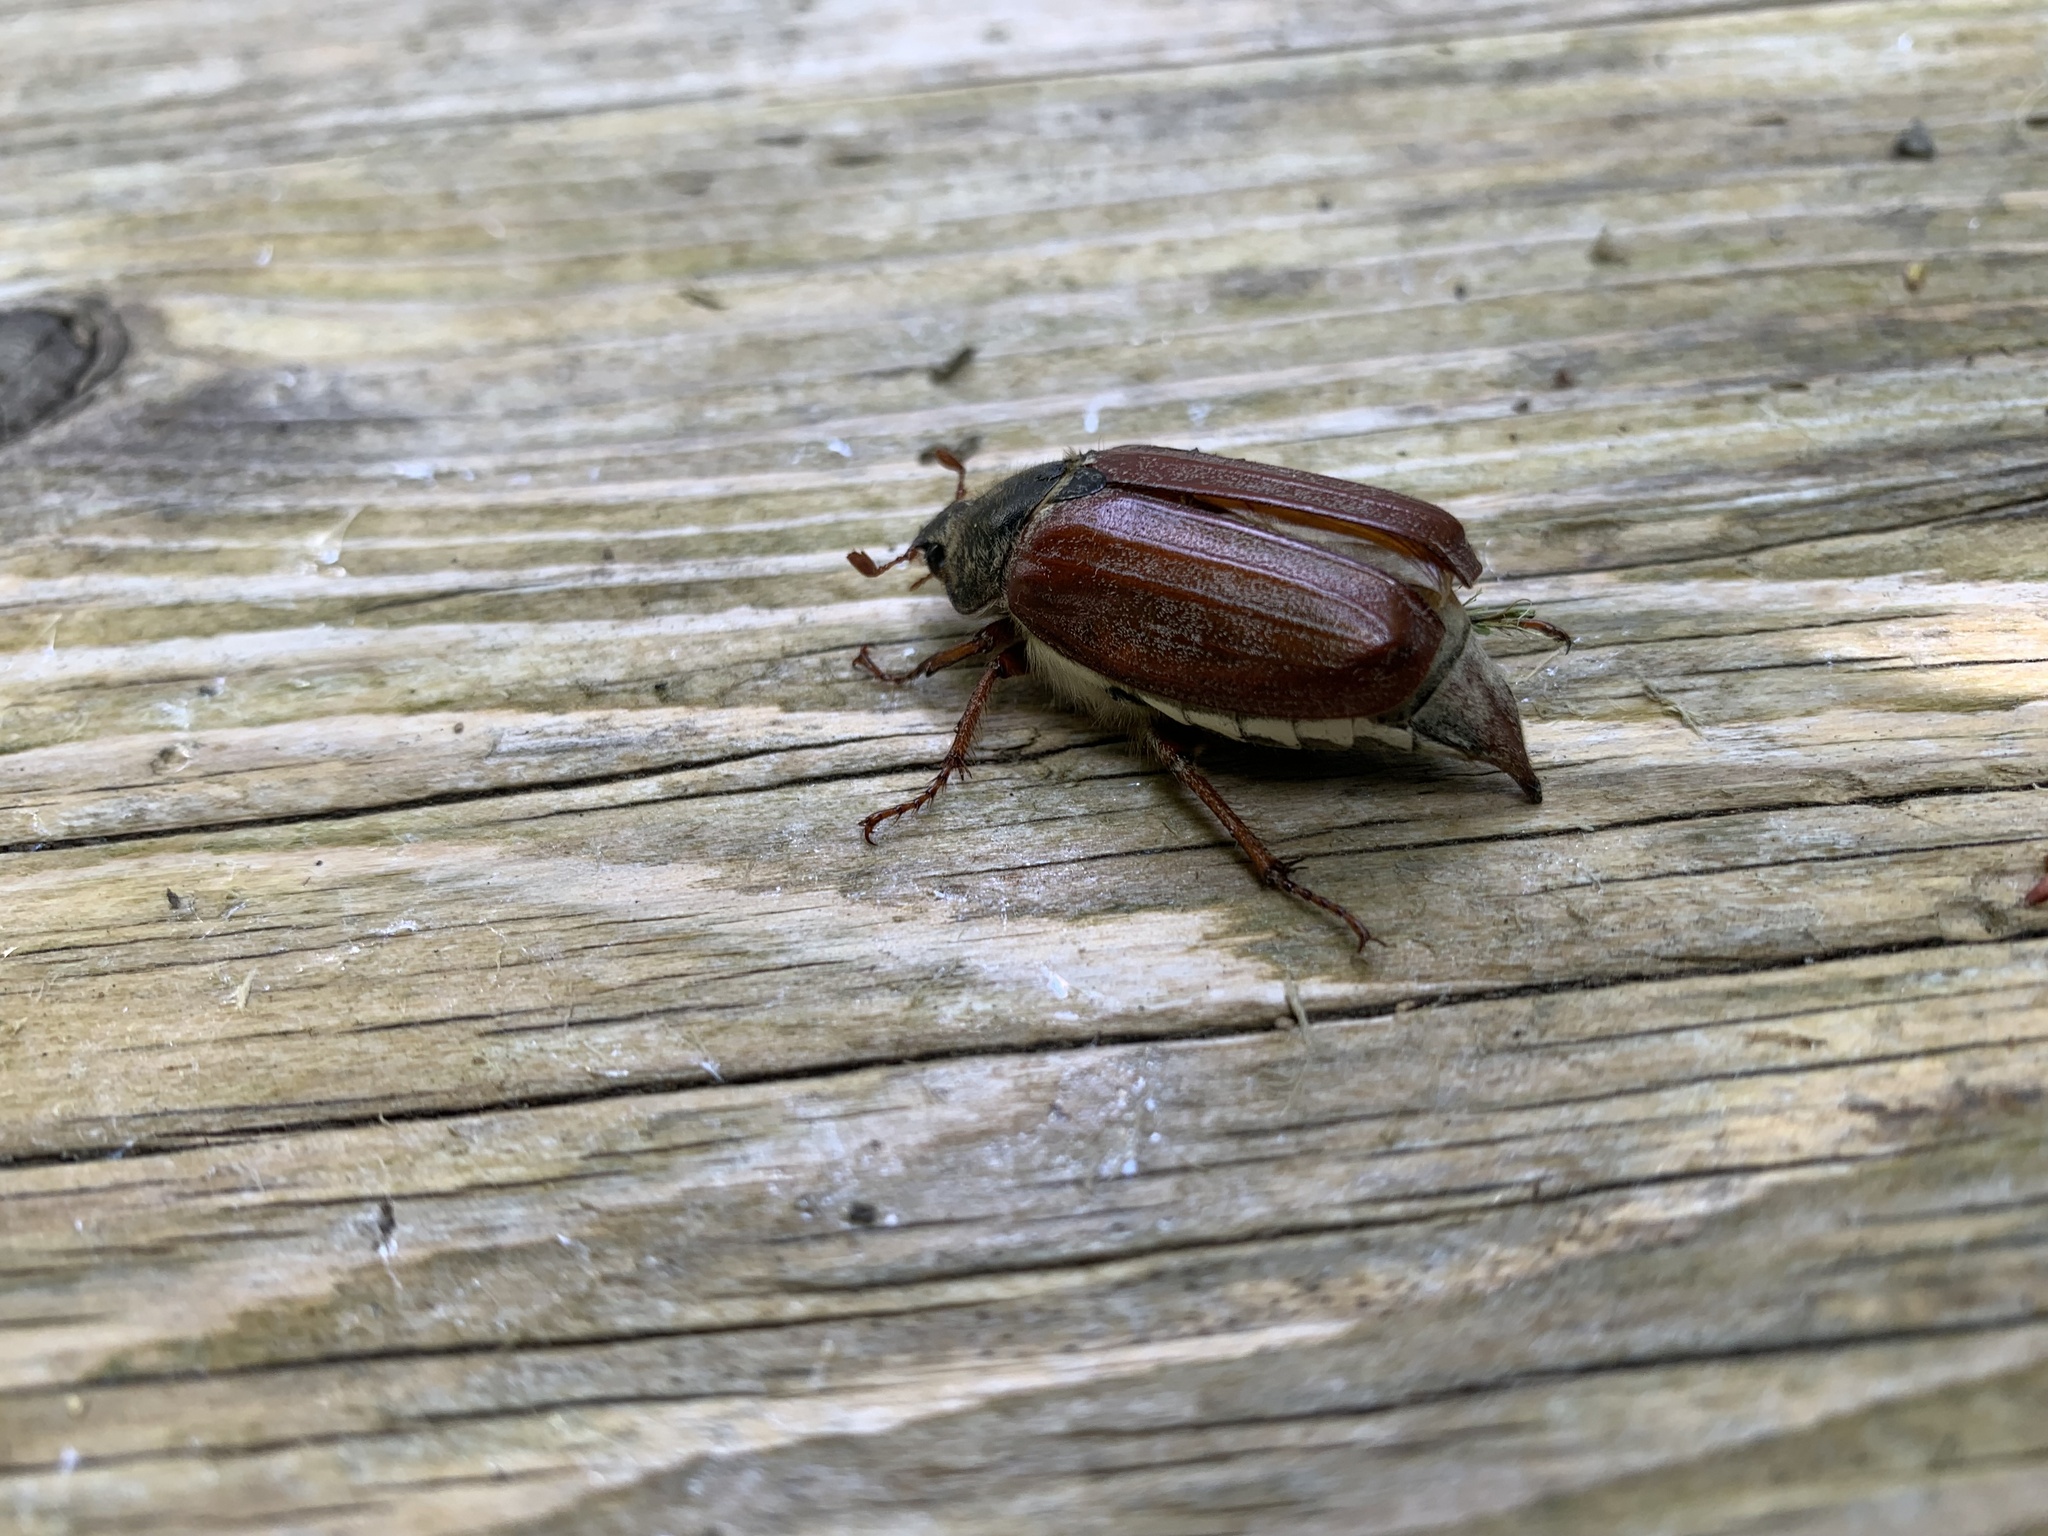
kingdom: Animalia
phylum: Arthropoda
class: Insecta
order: Coleoptera
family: Scarabaeidae
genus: Melolontha
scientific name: Melolontha melolontha
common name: Cockchafer maybeetle
